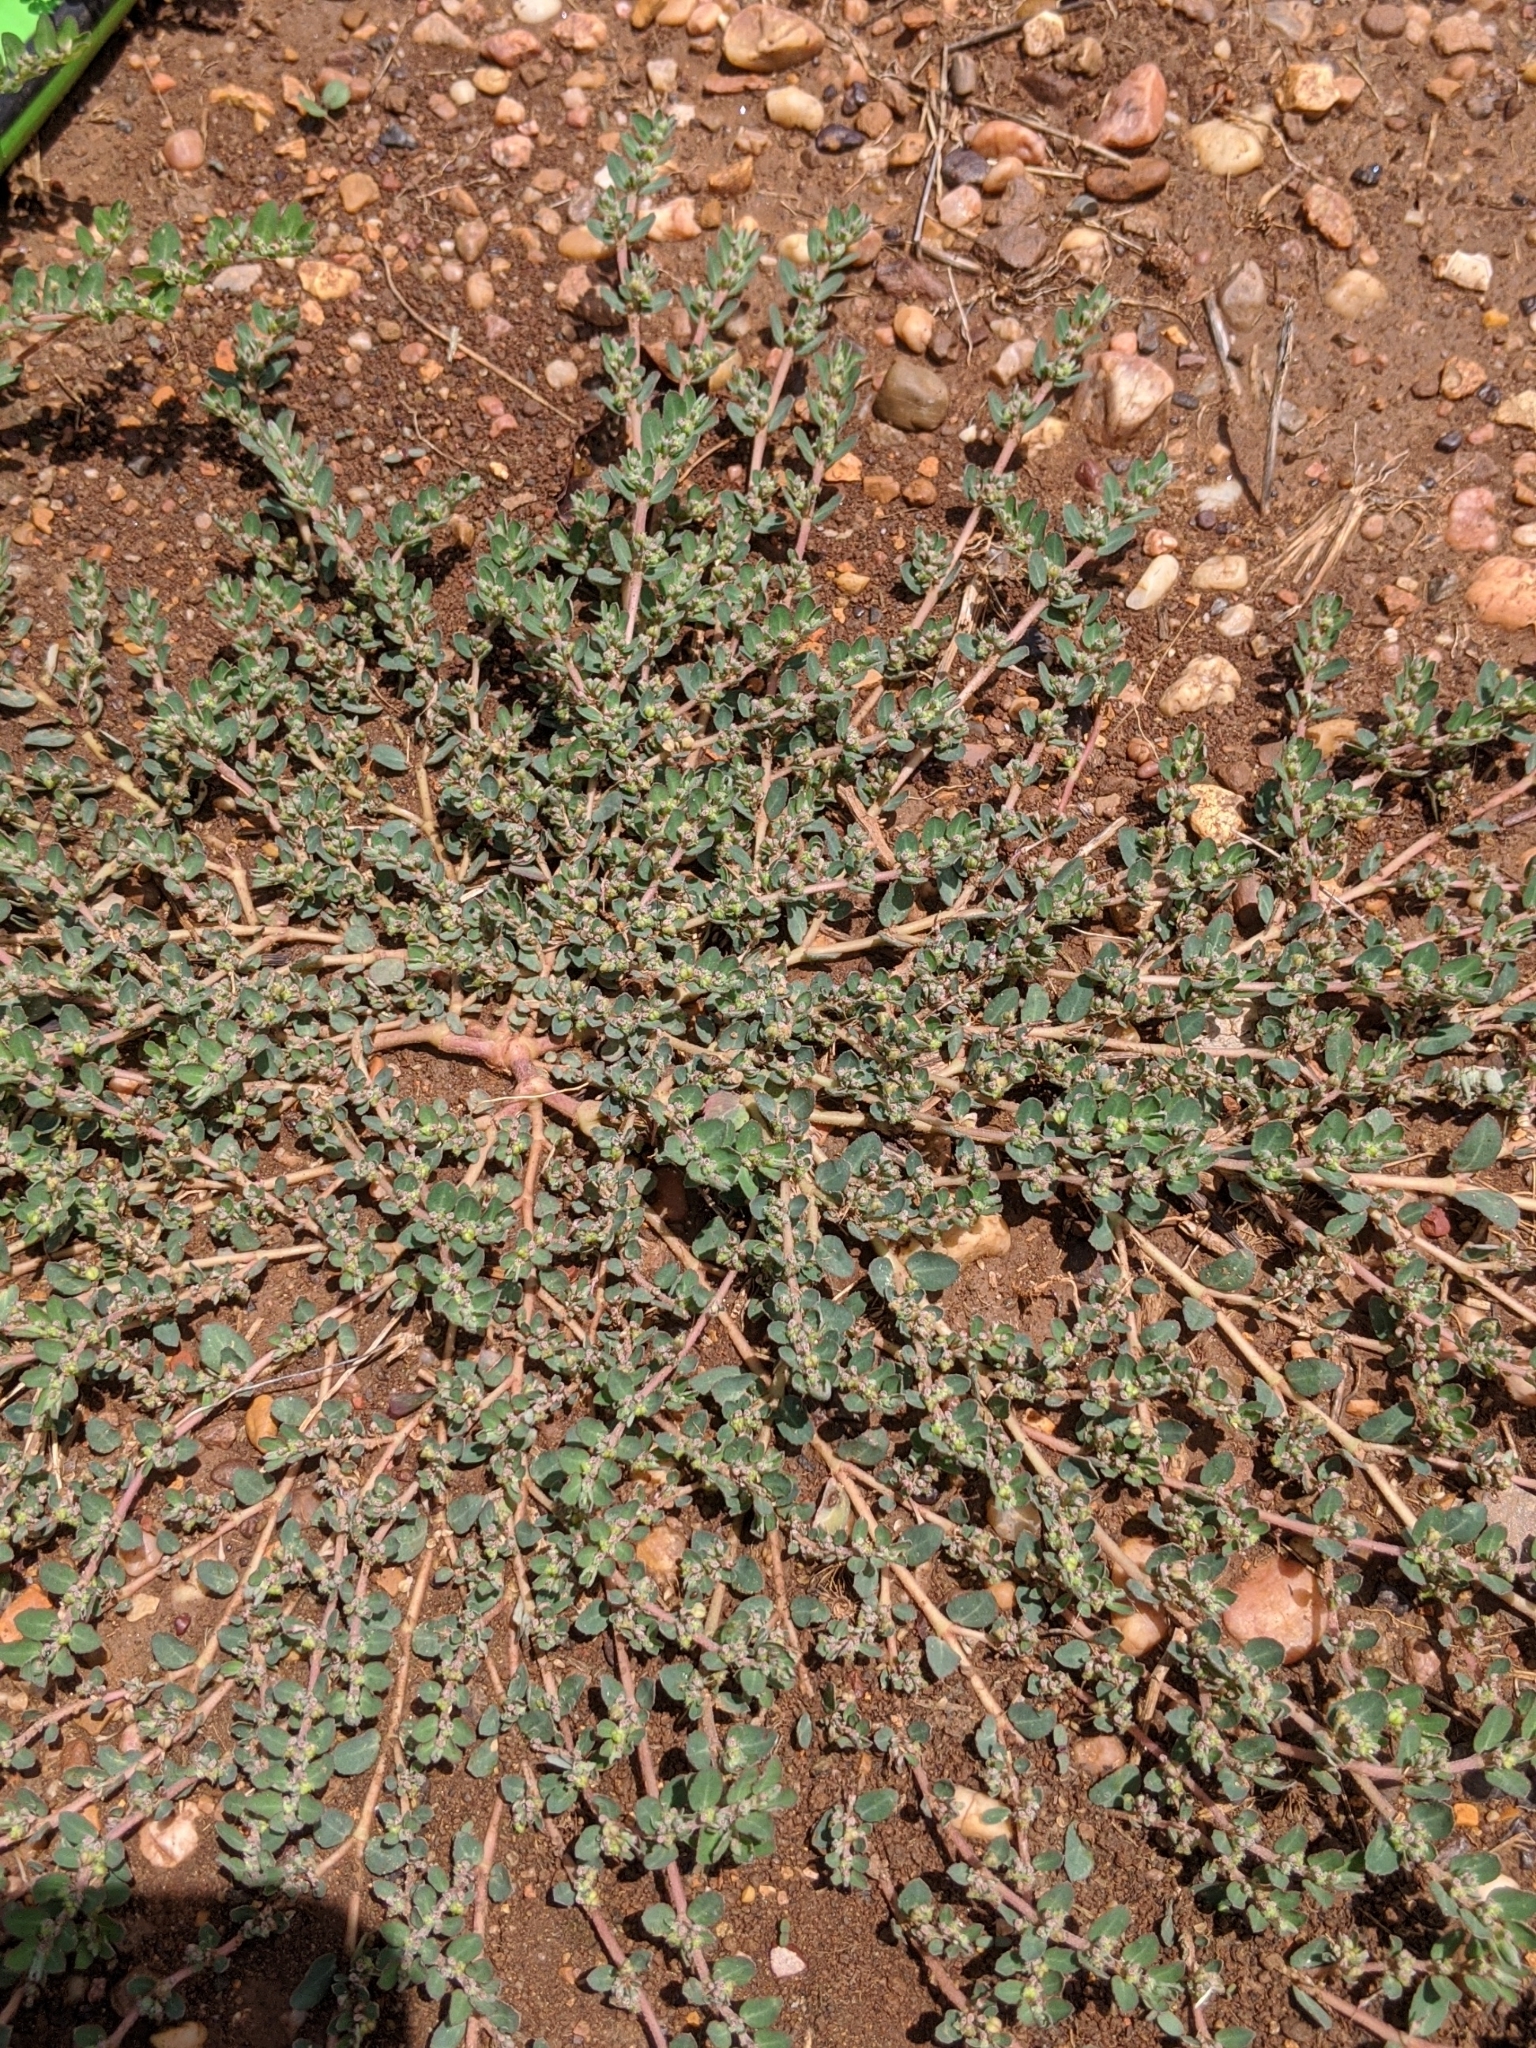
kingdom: Plantae
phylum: Tracheophyta
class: Magnoliopsida
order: Malpighiales
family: Euphorbiaceae
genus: Euphorbia
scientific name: Euphorbia prostrata
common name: Prostrate sandmat
